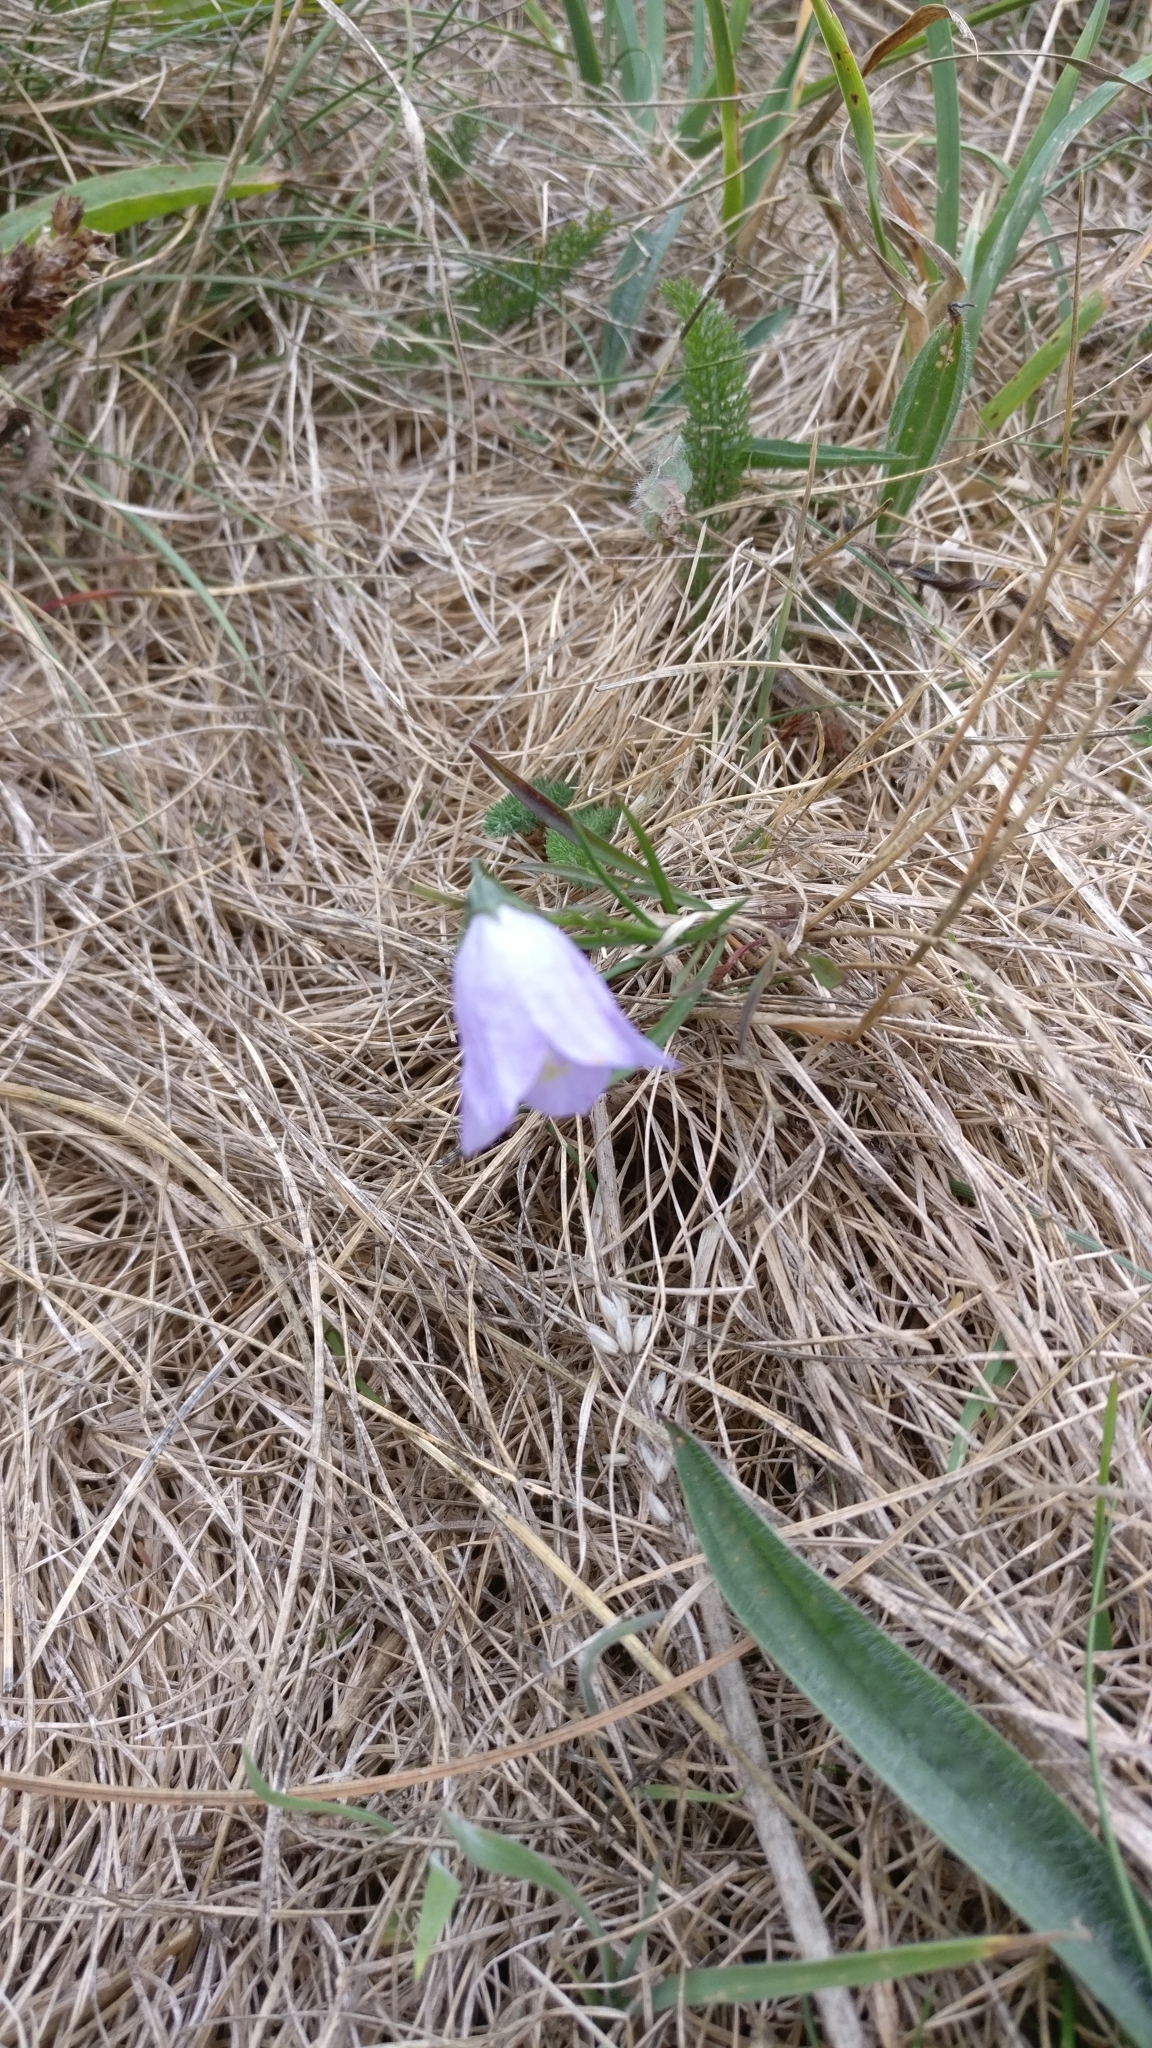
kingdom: Plantae
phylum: Tracheophyta
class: Magnoliopsida
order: Asterales
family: Campanulaceae
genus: Campanula
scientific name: Campanula rotundifolia
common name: Harebell
